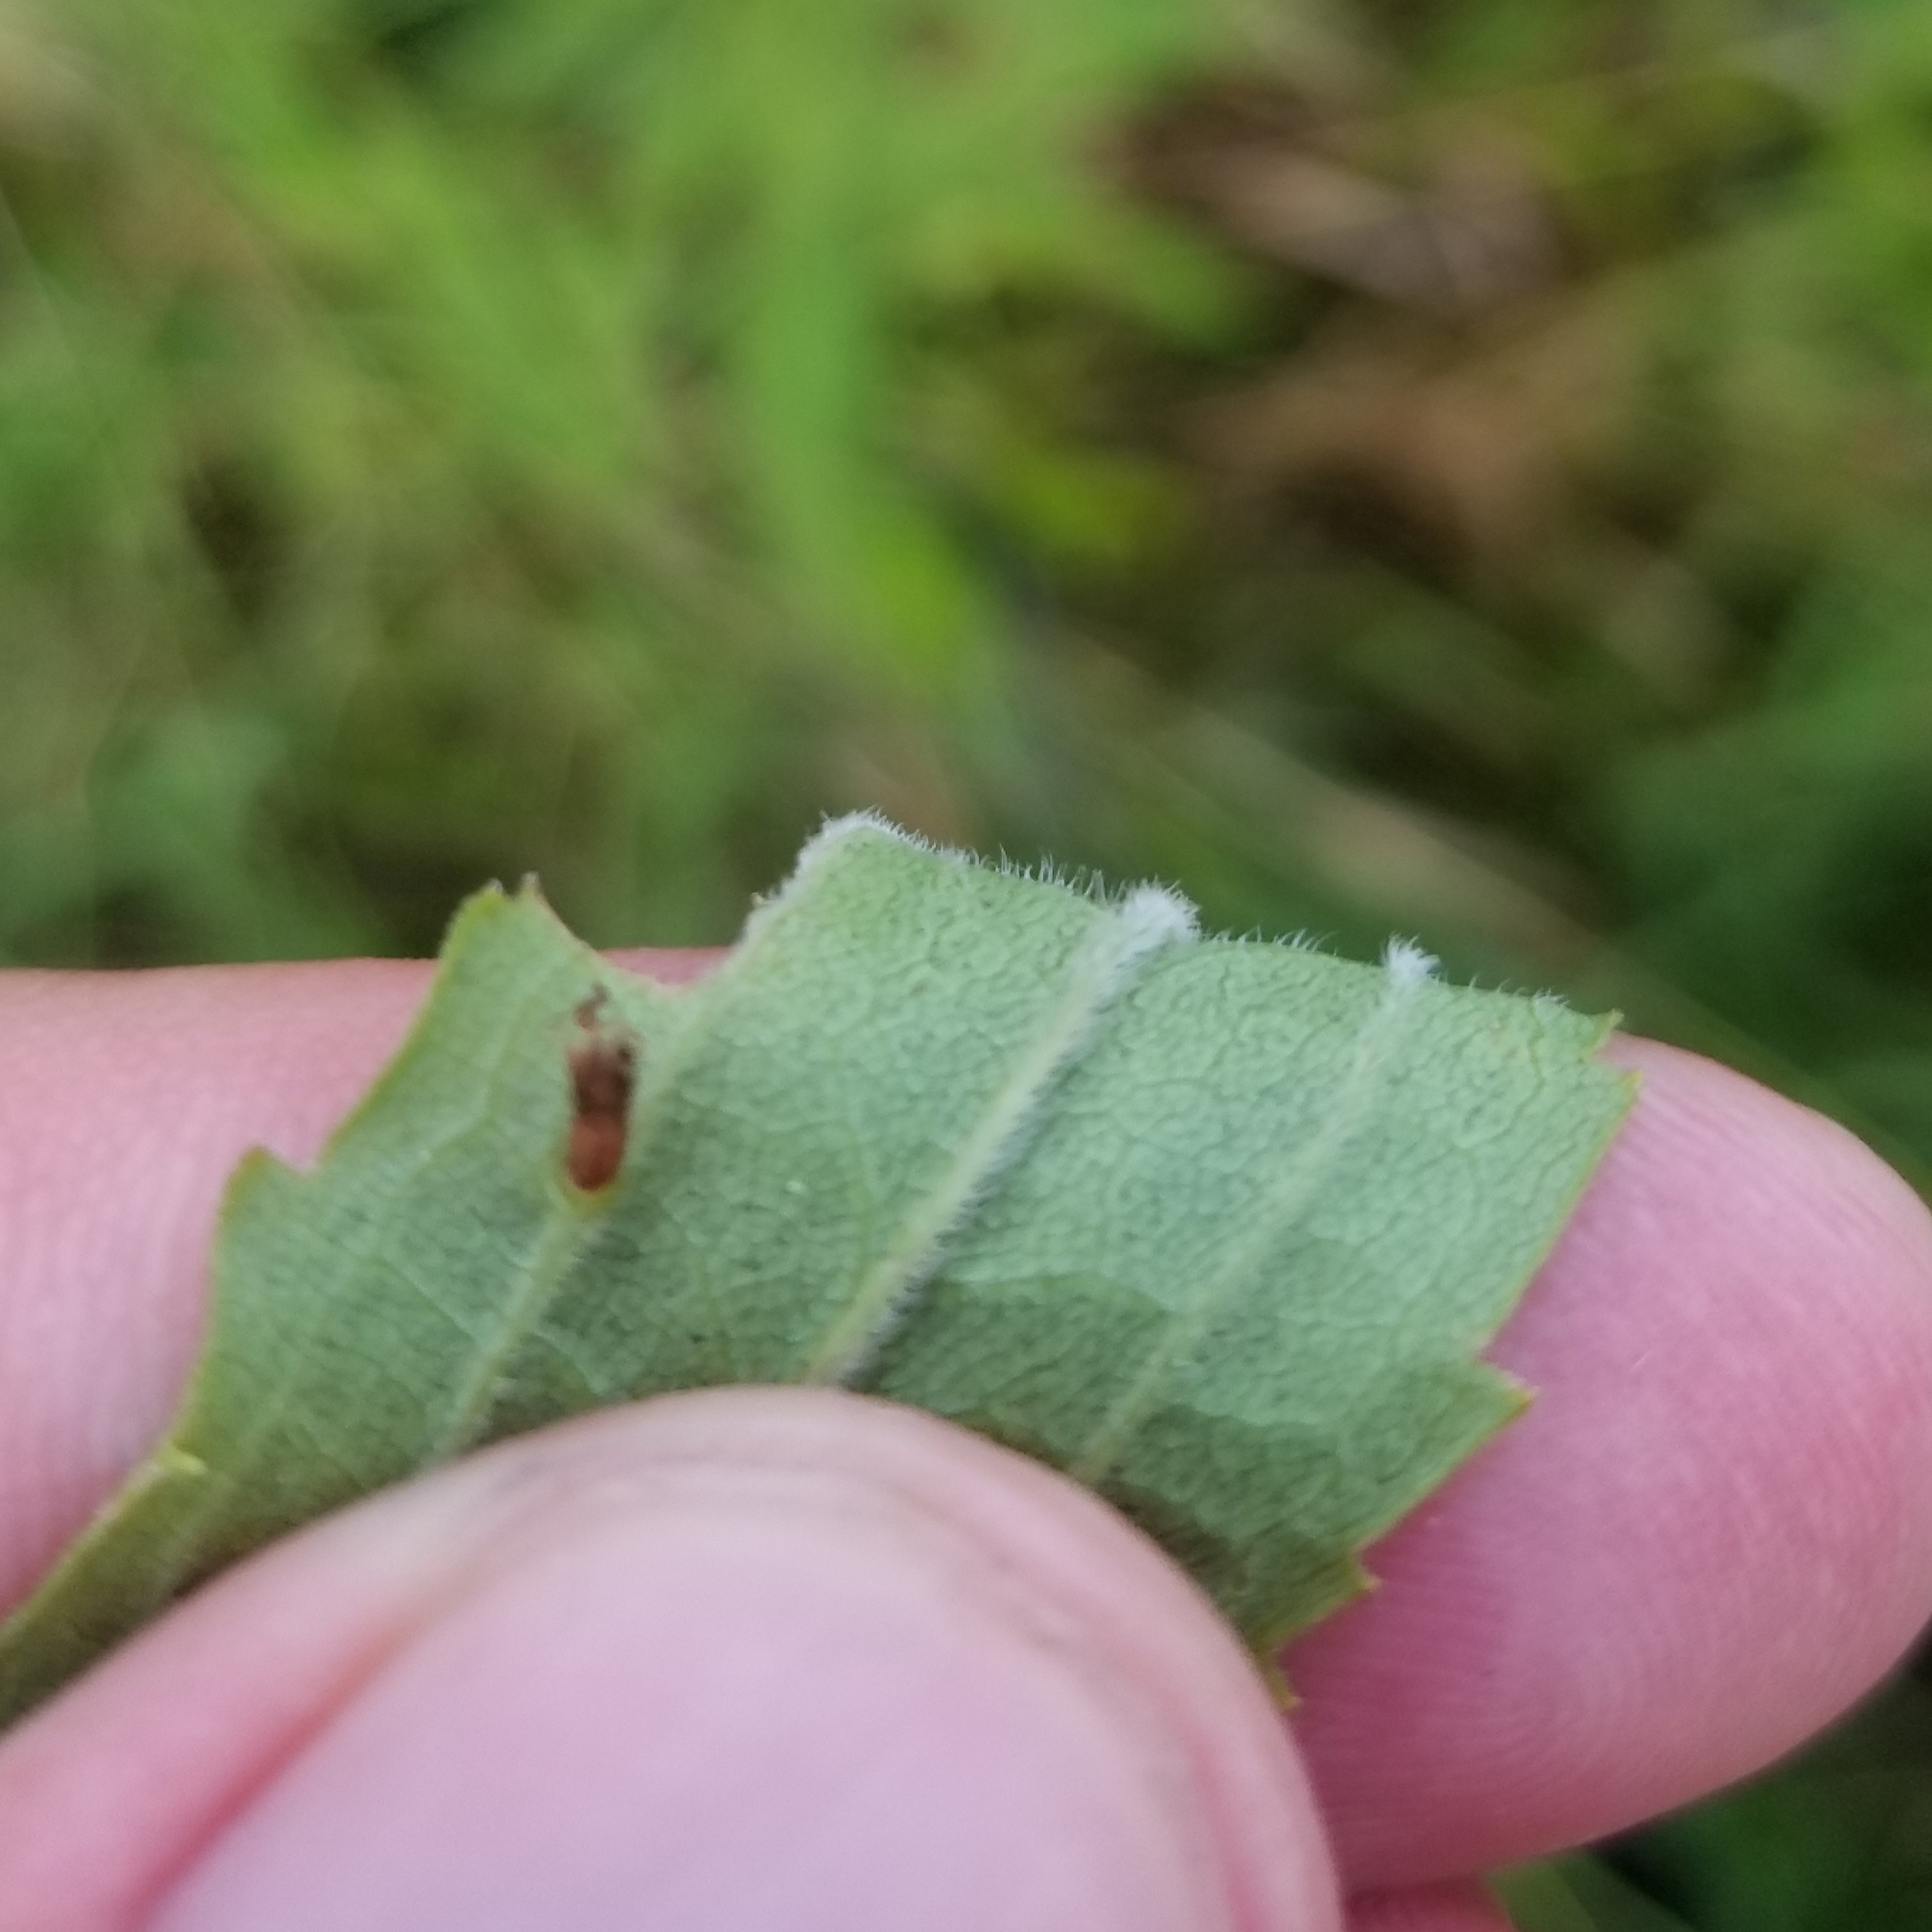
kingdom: Plantae
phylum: Tracheophyta
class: Magnoliopsida
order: Asterales
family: Asteraceae
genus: Solidago
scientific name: Solidago gigantea
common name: Giant goldenrod
